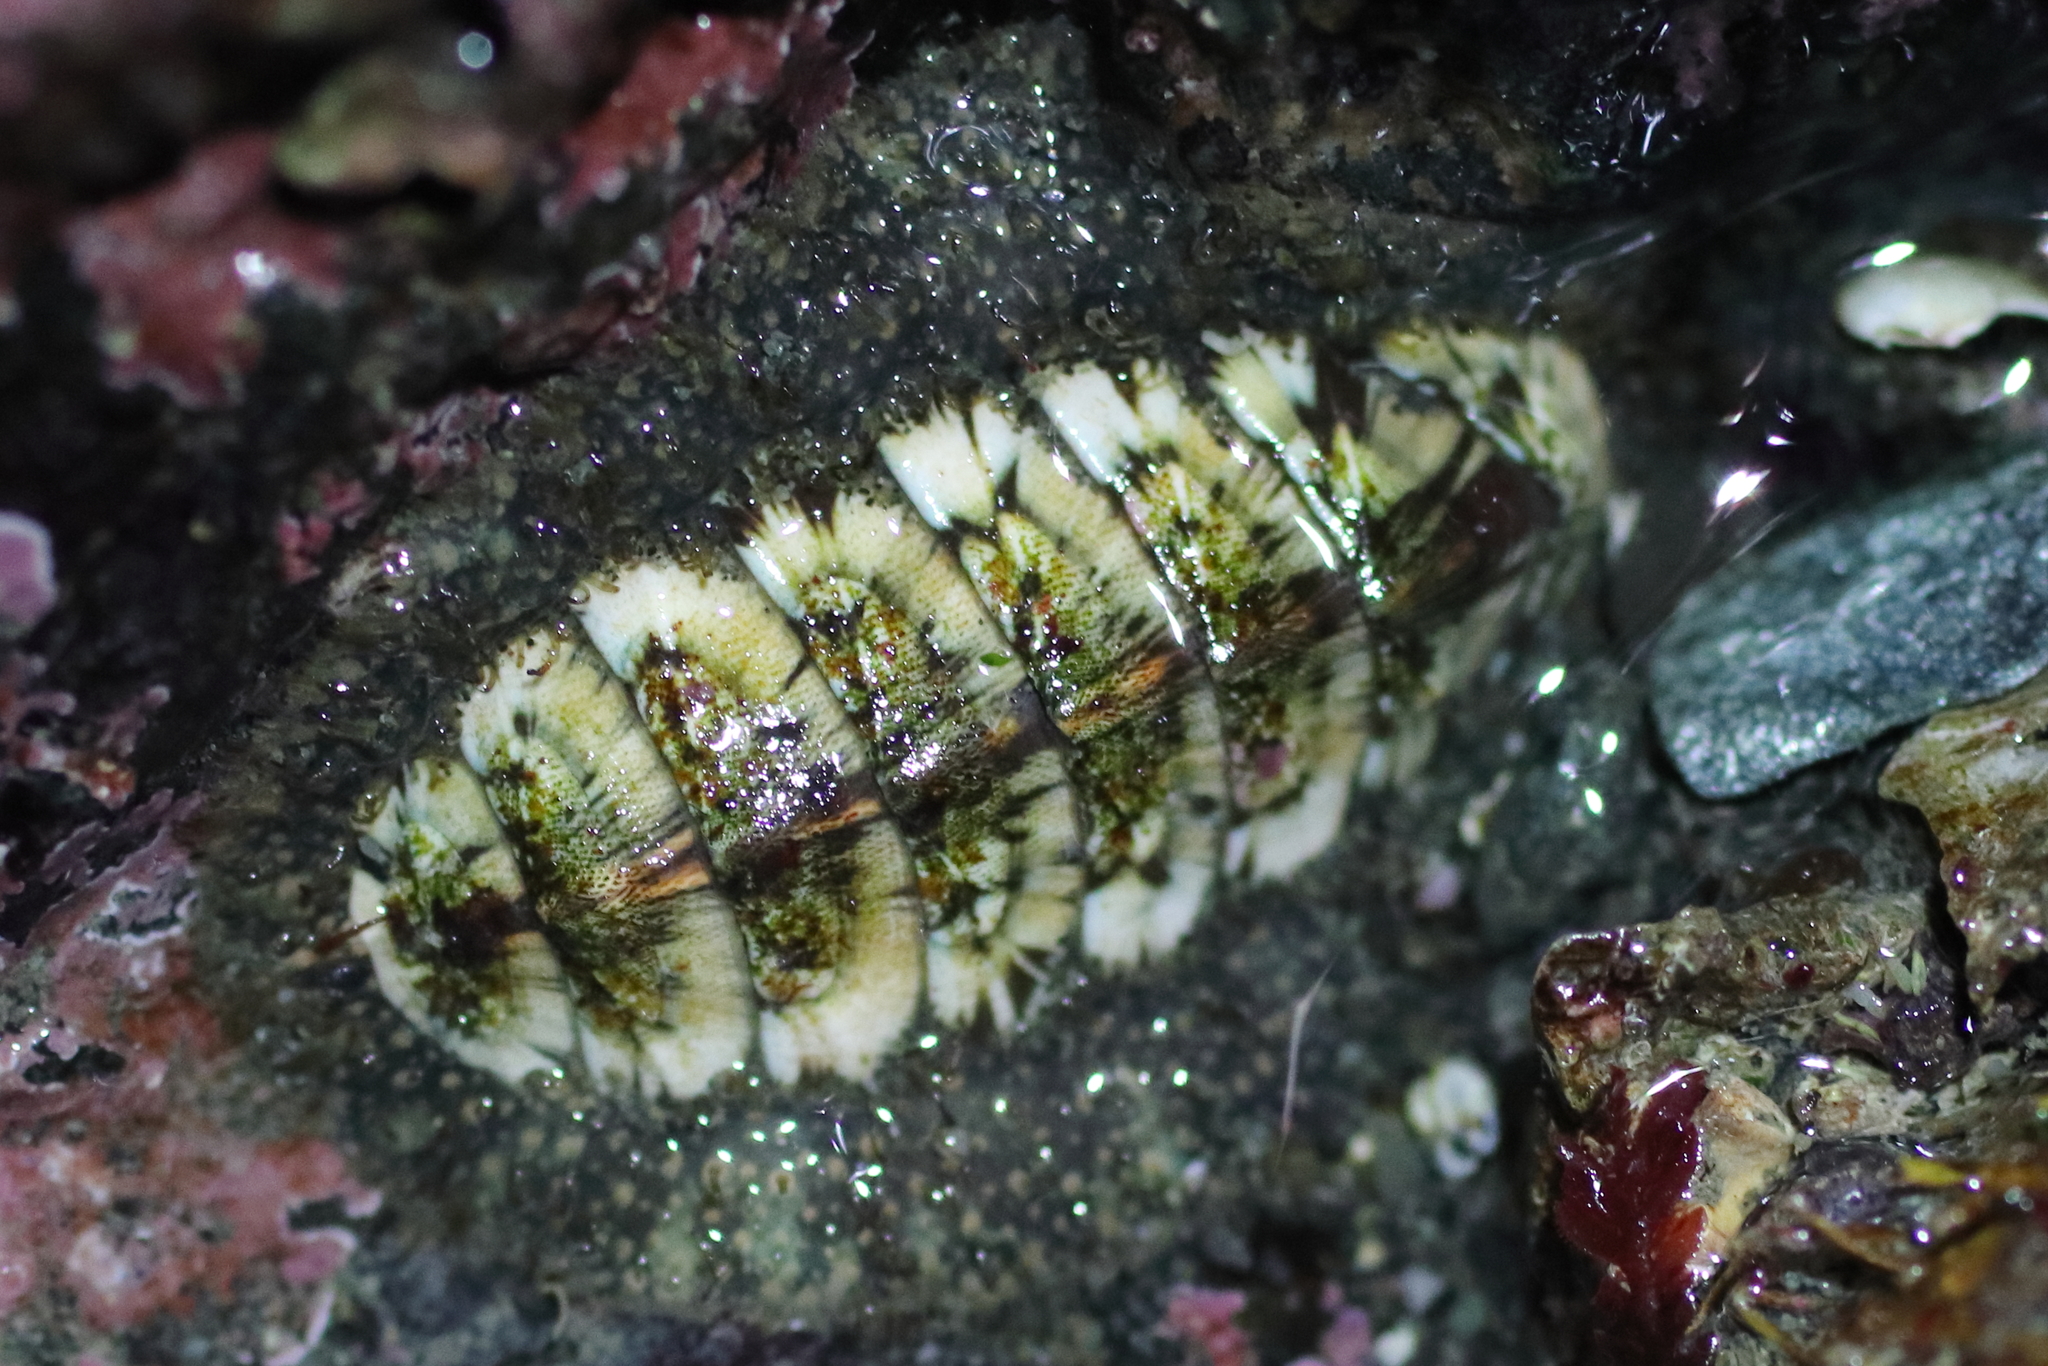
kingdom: Animalia
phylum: Mollusca
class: Polyplacophora
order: Chitonida
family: Mopaliidae
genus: Mopalia
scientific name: Mopalia lignosa
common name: Woody chiton
